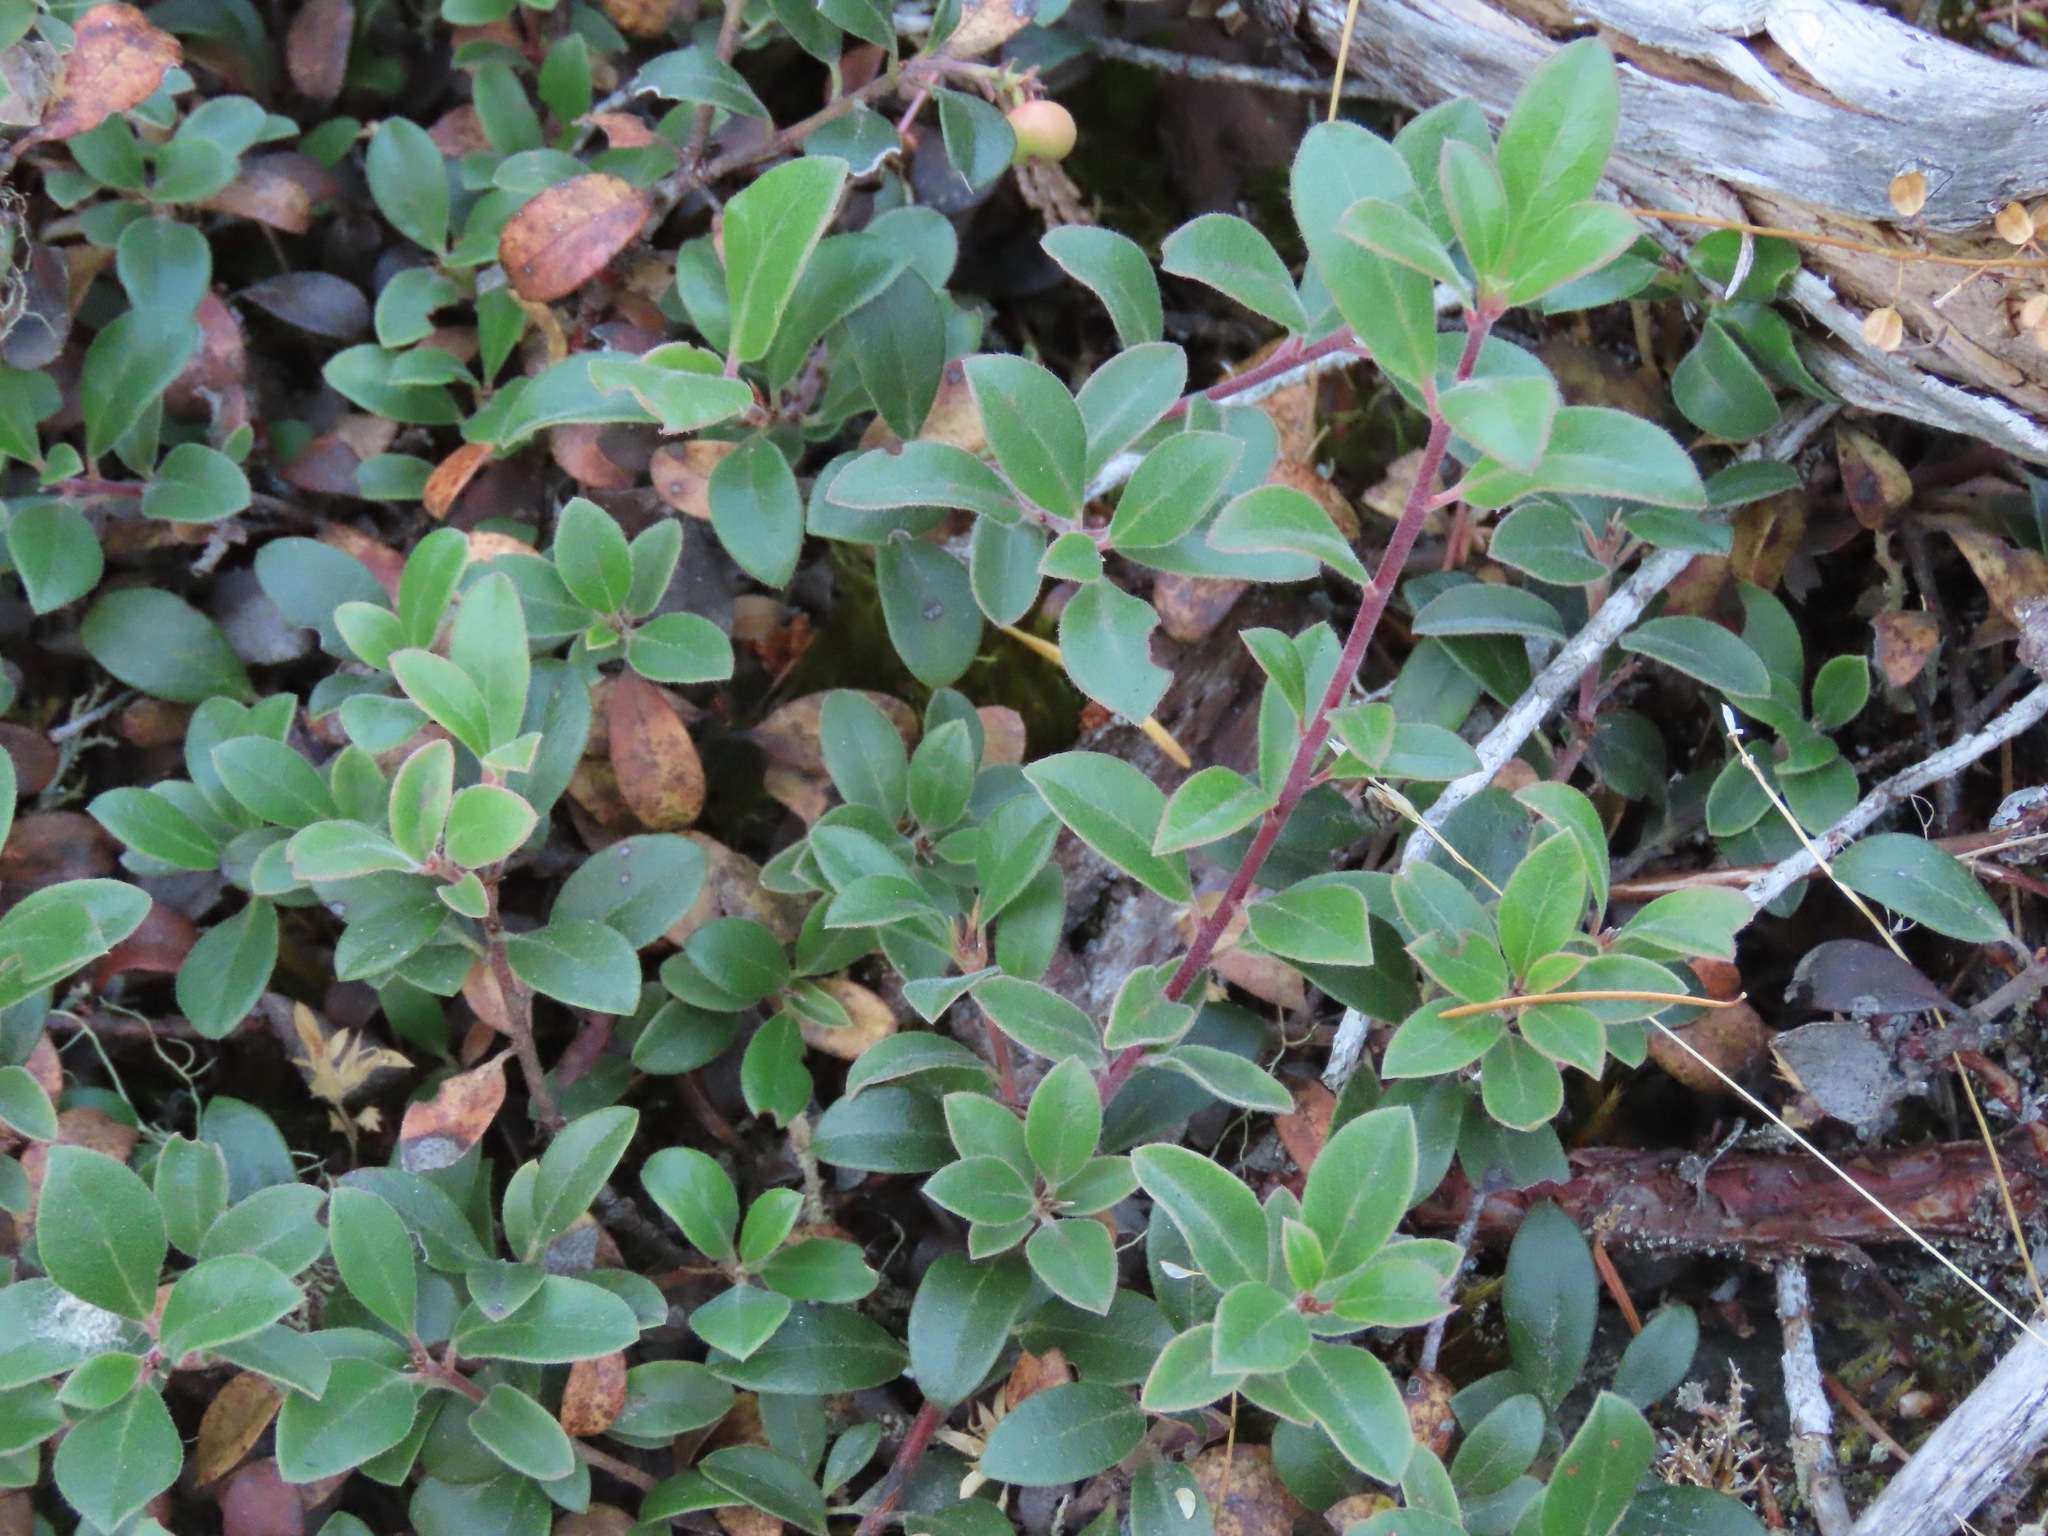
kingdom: Plantae
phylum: Tracheophyta
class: Magnoliopsida
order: Ericales
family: Ericaceae
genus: Arctostaphylos
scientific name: Arctostaphylos uva-ursi
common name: Bearberry
